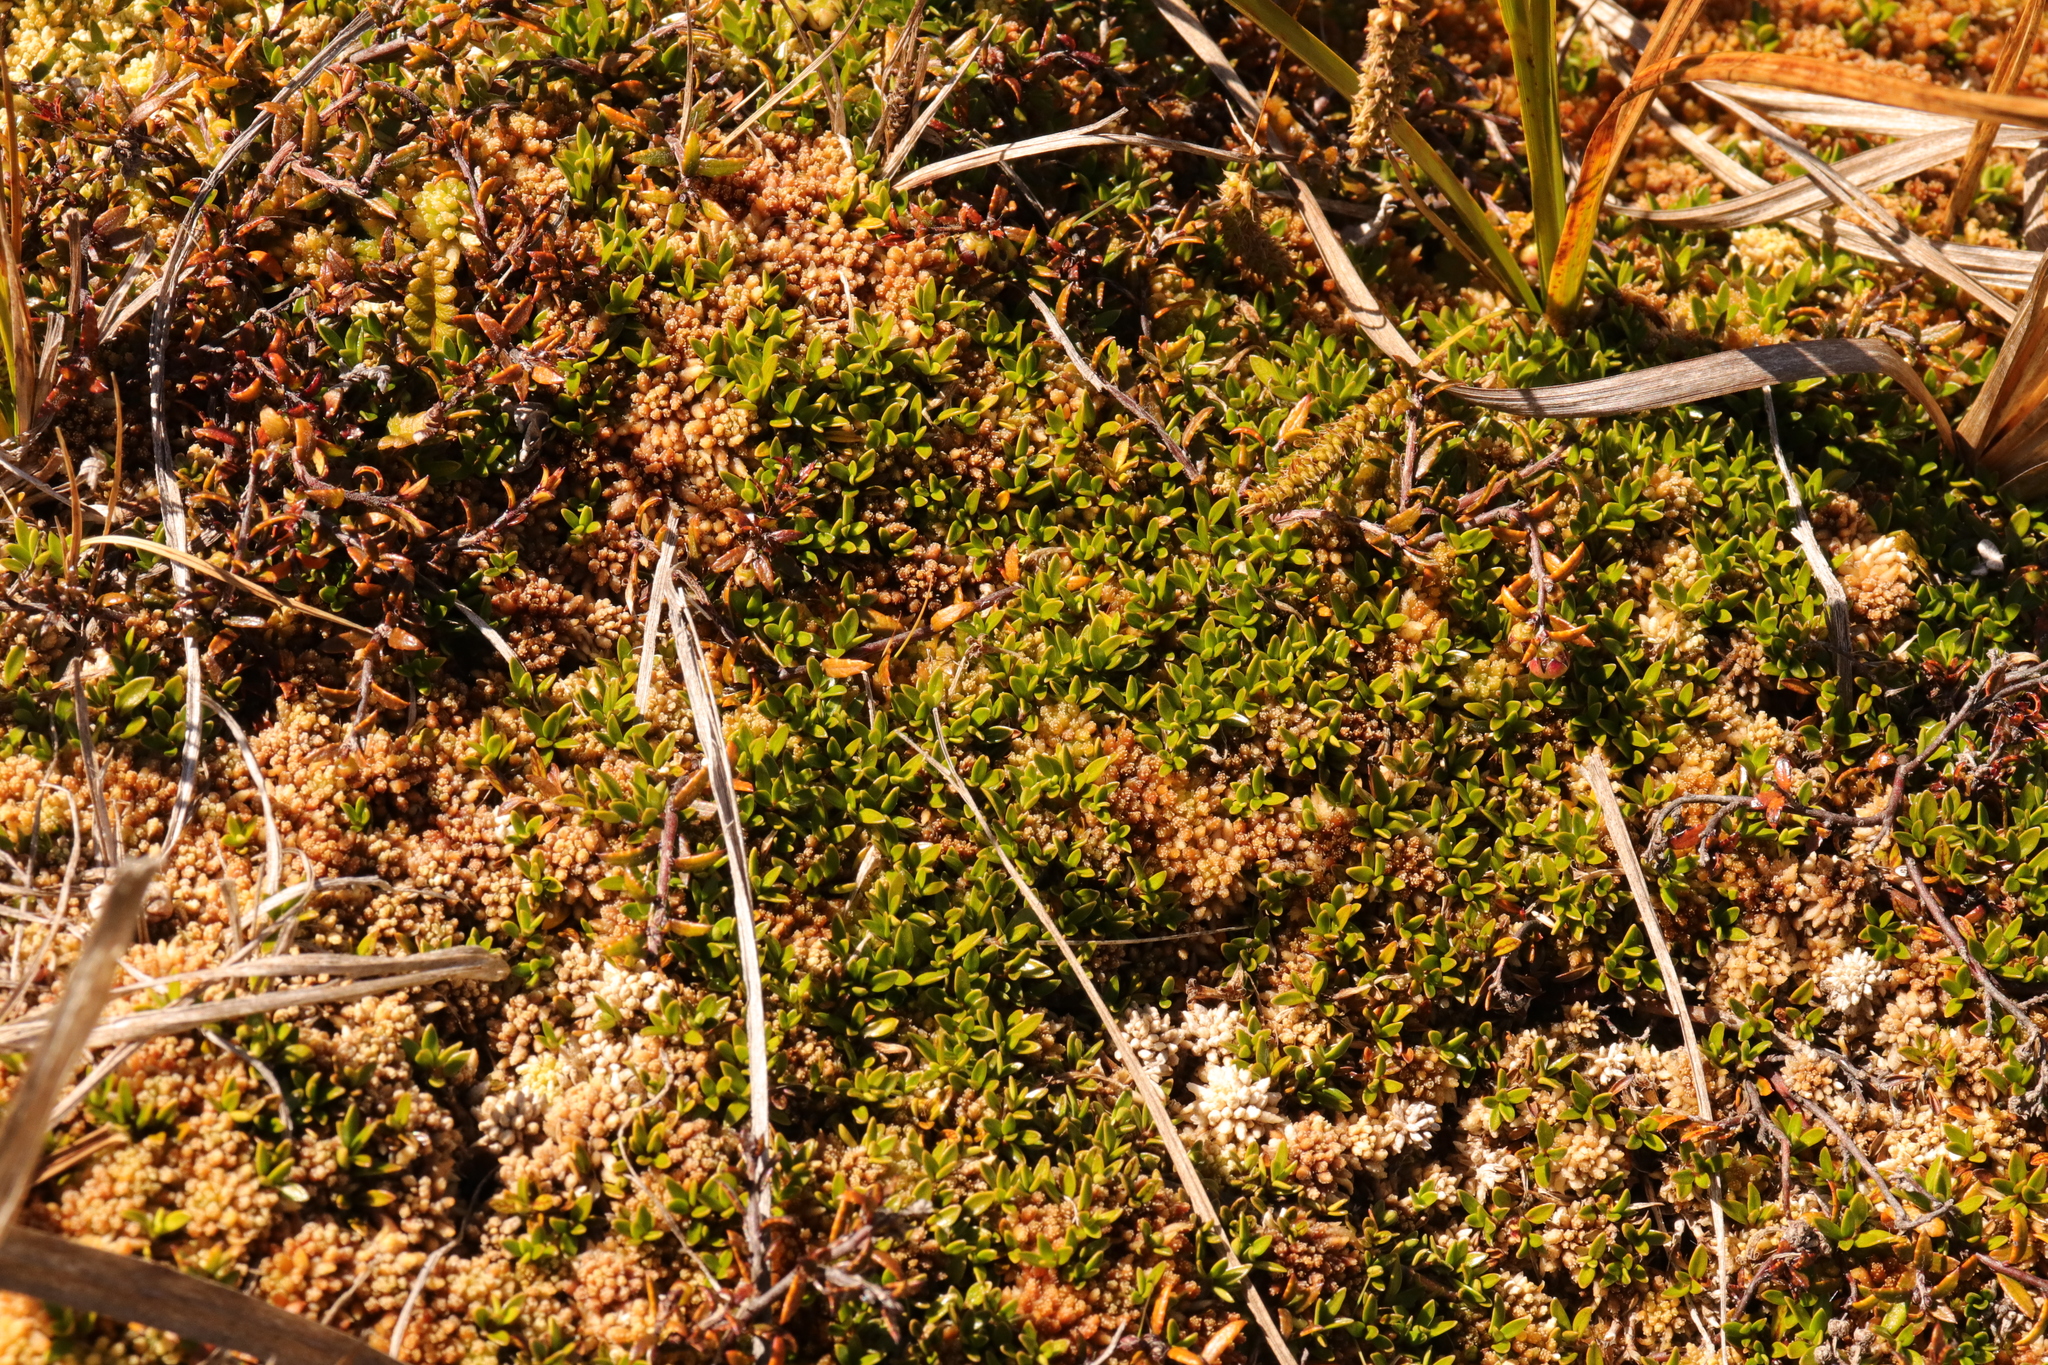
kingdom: Plantae
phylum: Tracheophyta
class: Magnoliopsida
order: Gentianales
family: Rubiaceae
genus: Coprosma
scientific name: Coprosma perpusilla
